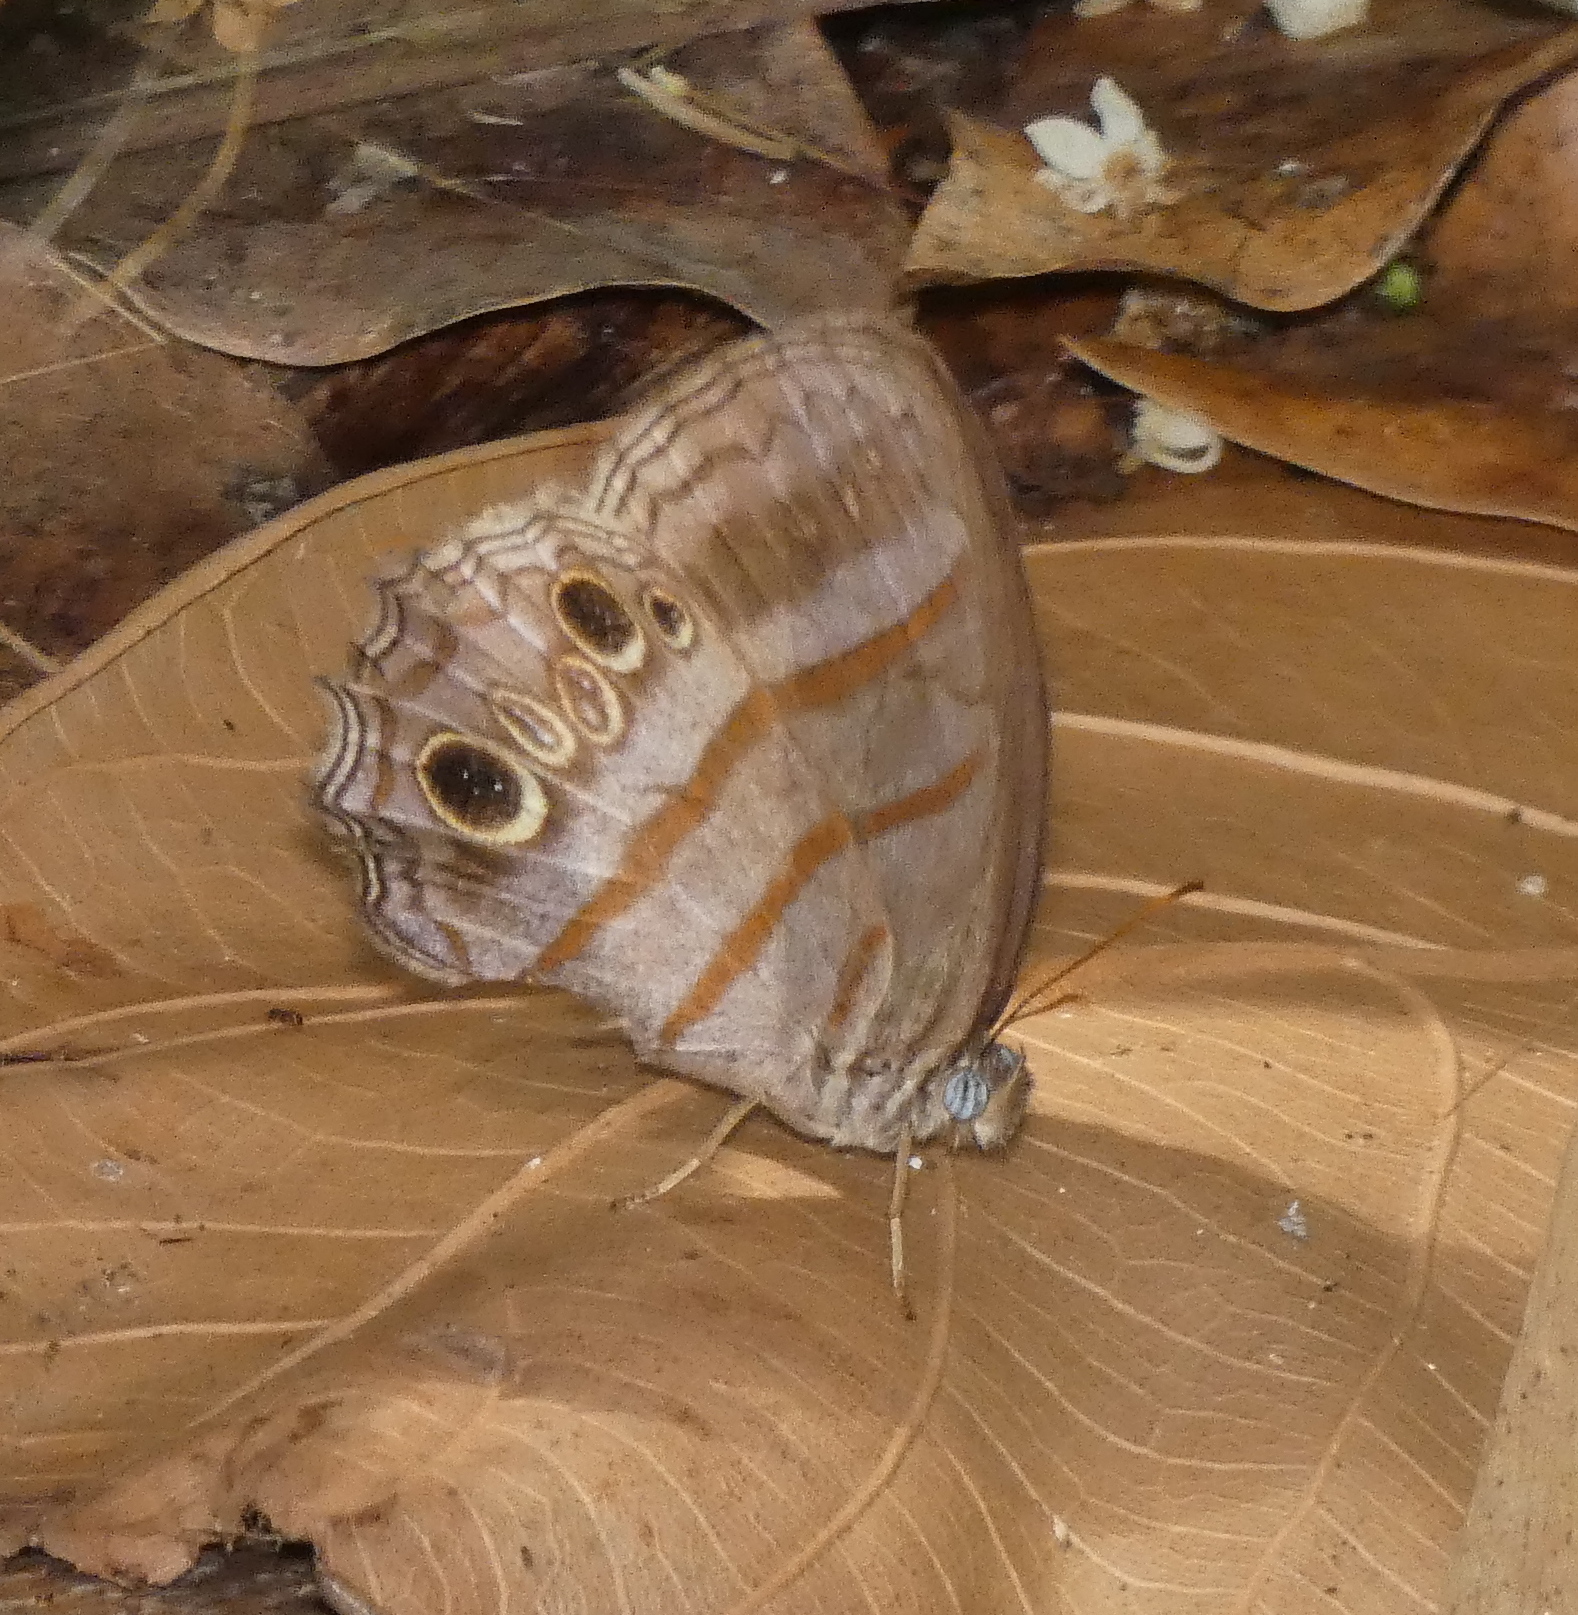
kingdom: Animalia
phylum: Arthropoda
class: Insecta
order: Lepidoptera
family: Nymphalidae
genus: Magneuptychia
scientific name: Magneuptychia libye
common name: Blue-gray satyr
